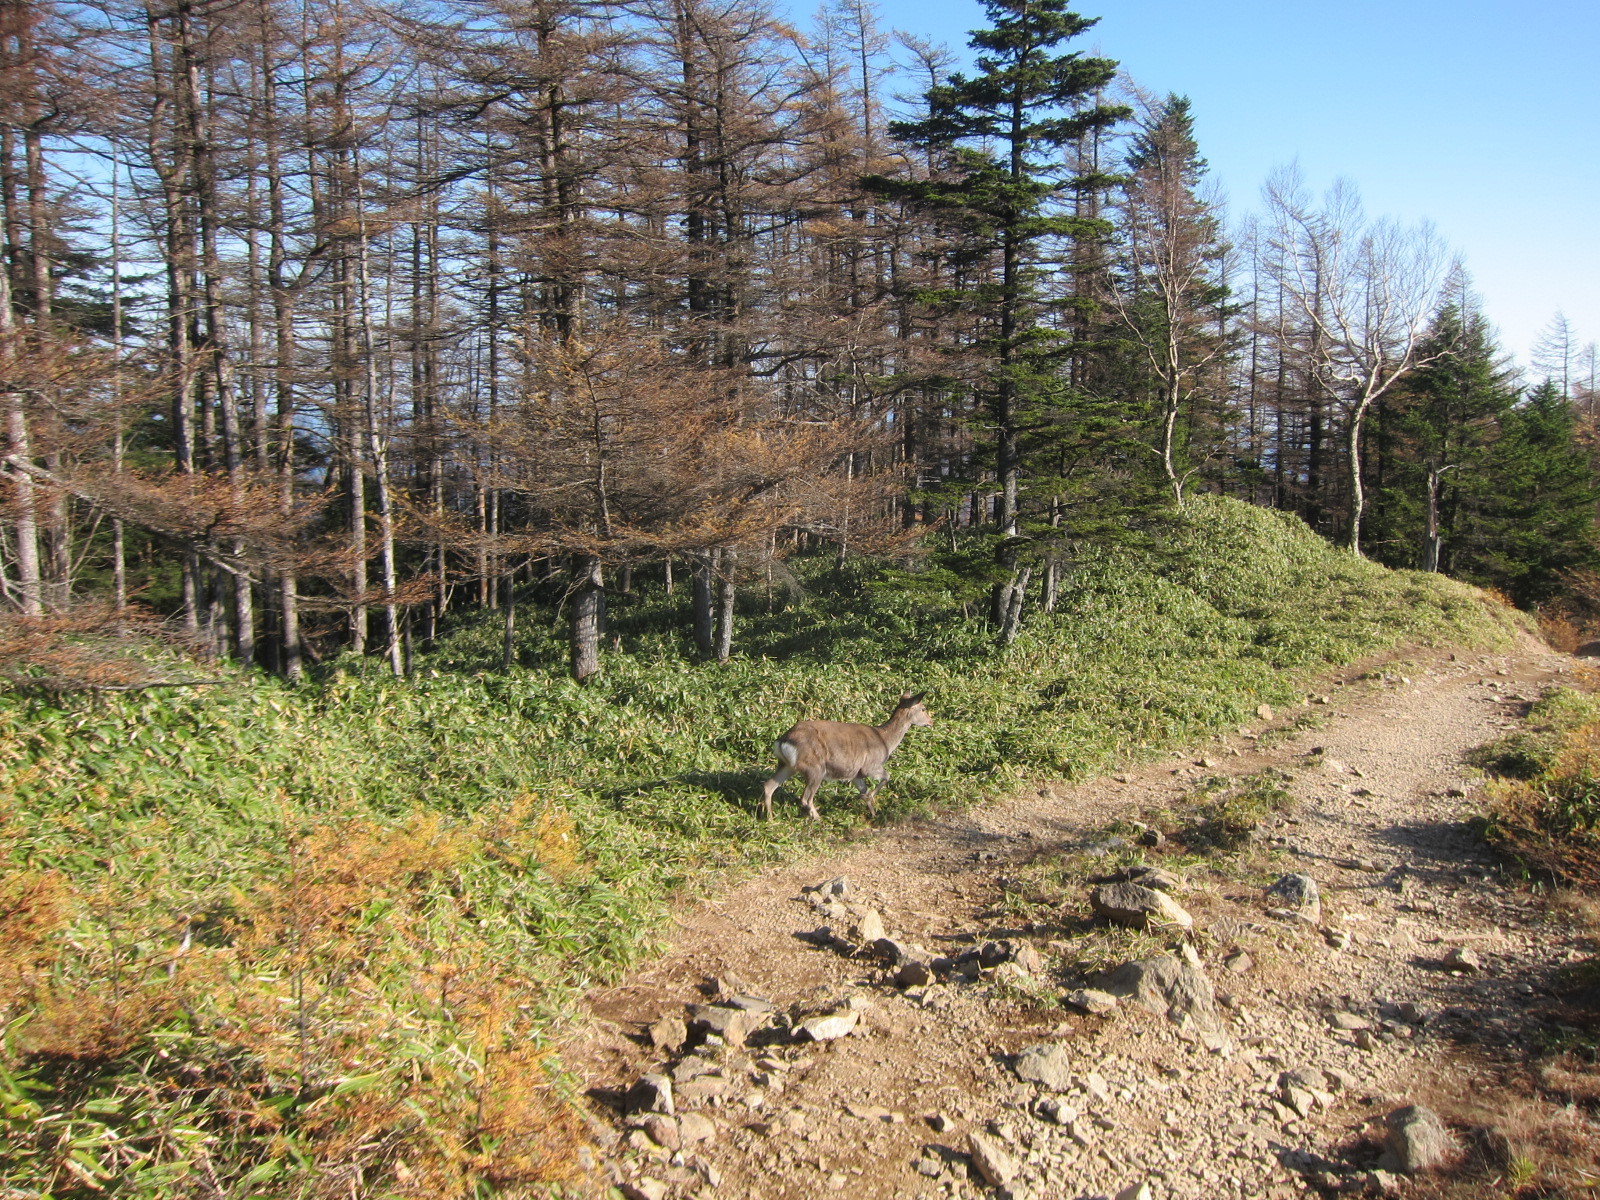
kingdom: Animalia
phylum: Chordata
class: Mammalia
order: Artiodactyla
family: Cervidae
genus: Cervus
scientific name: Cervus nippon
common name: Sika deer
